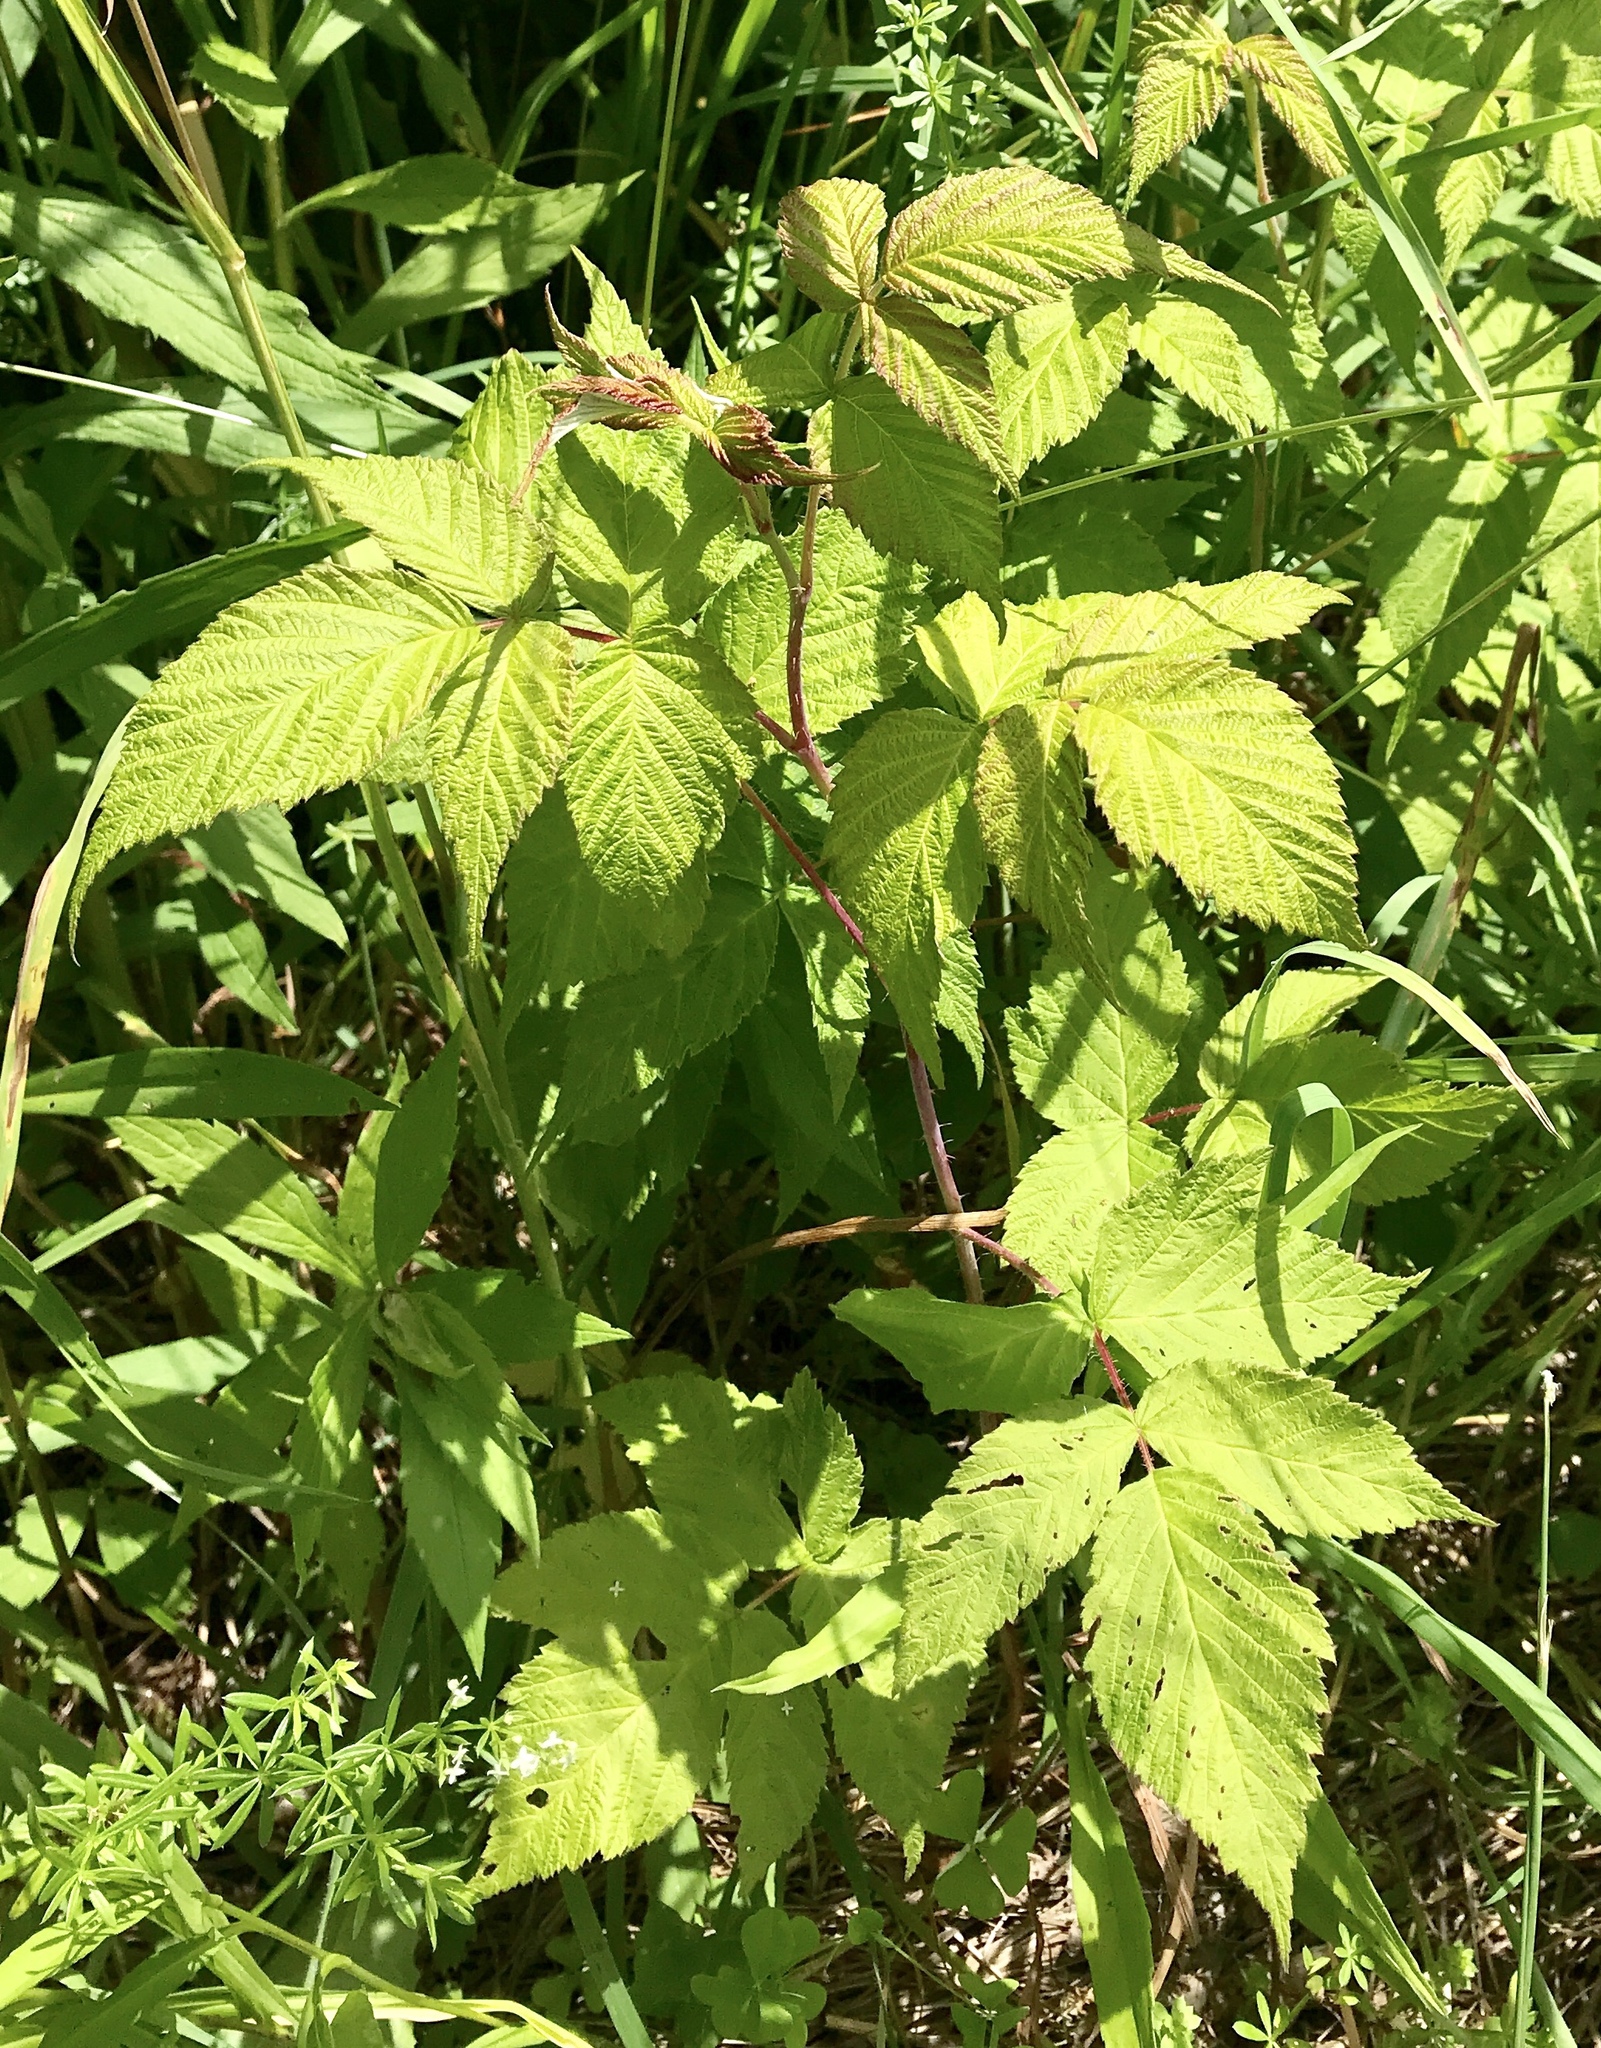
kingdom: Plantae
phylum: Tracheophyta
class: Magnoliopsida
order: Rosales
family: Rosaceae
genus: Rubus
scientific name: Rubus idaeus
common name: Raspberry
